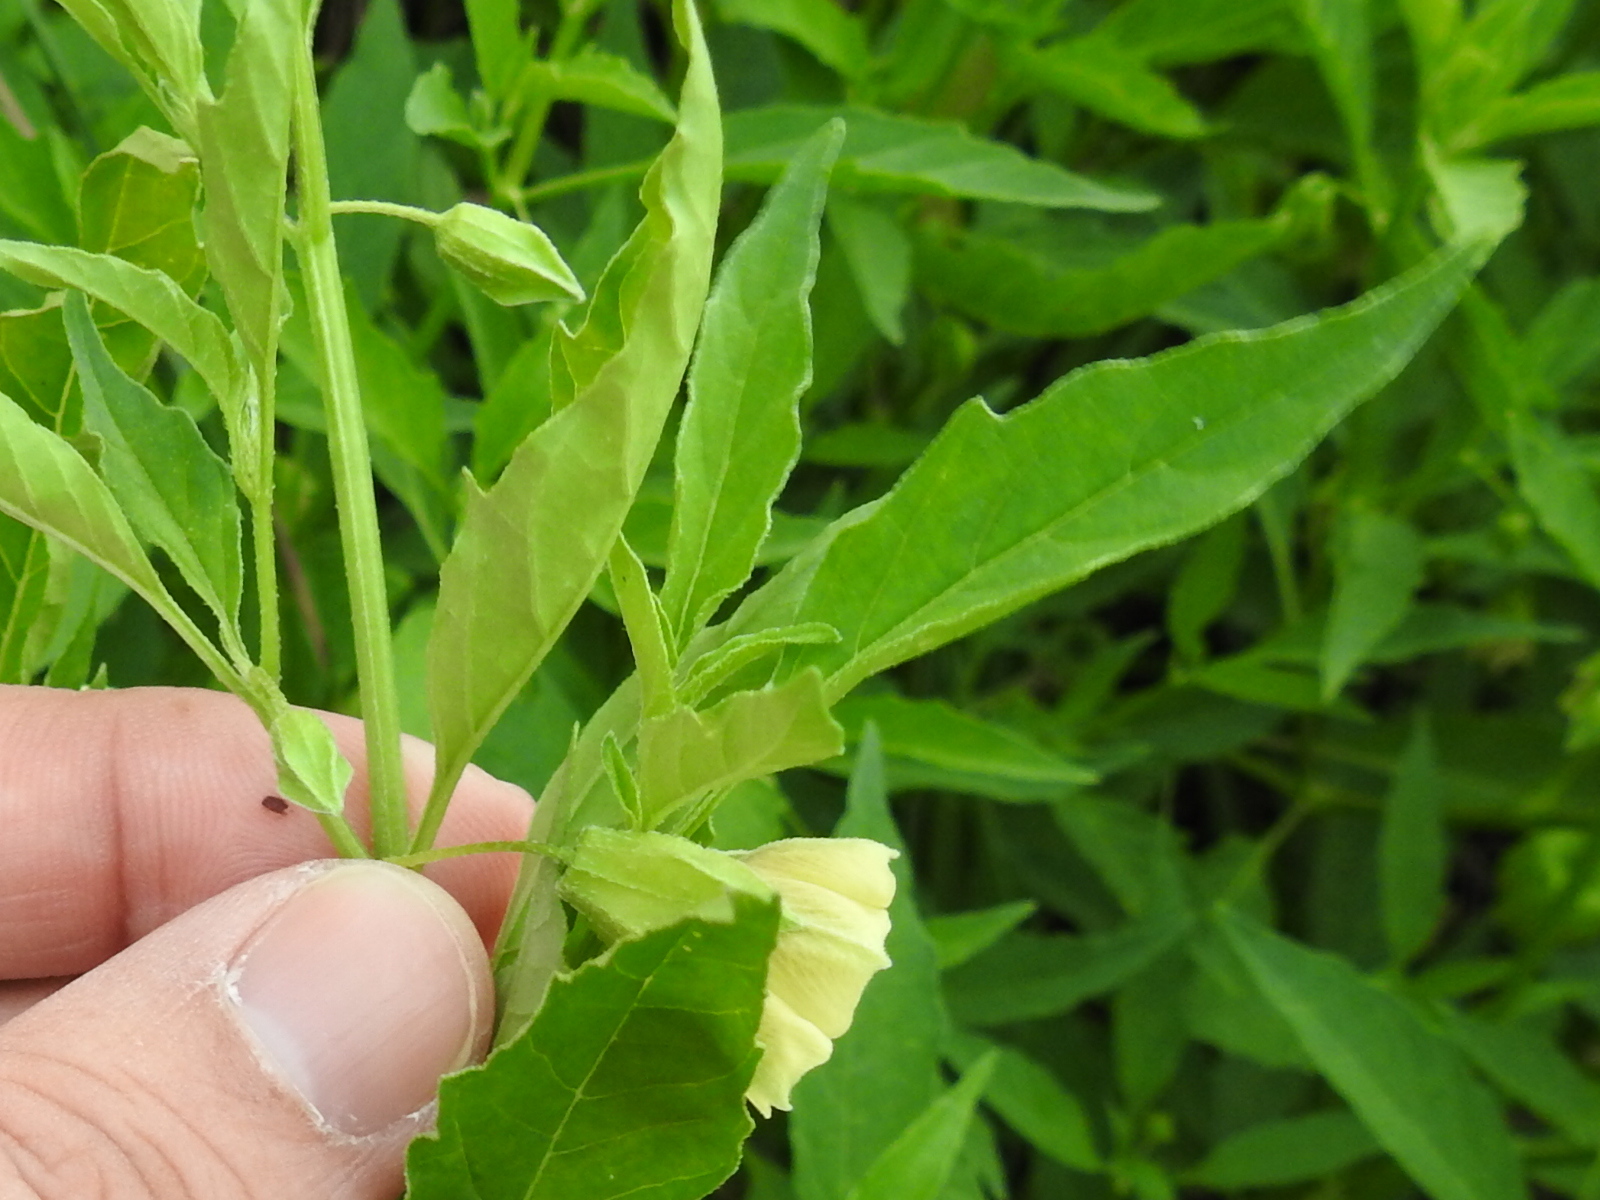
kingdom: Plantae
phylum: Tracheophyta
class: Magnoliopsida
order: Solanales
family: Solanaceae
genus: Physalis
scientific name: Physalis angulata
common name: Angular winter-cherry
